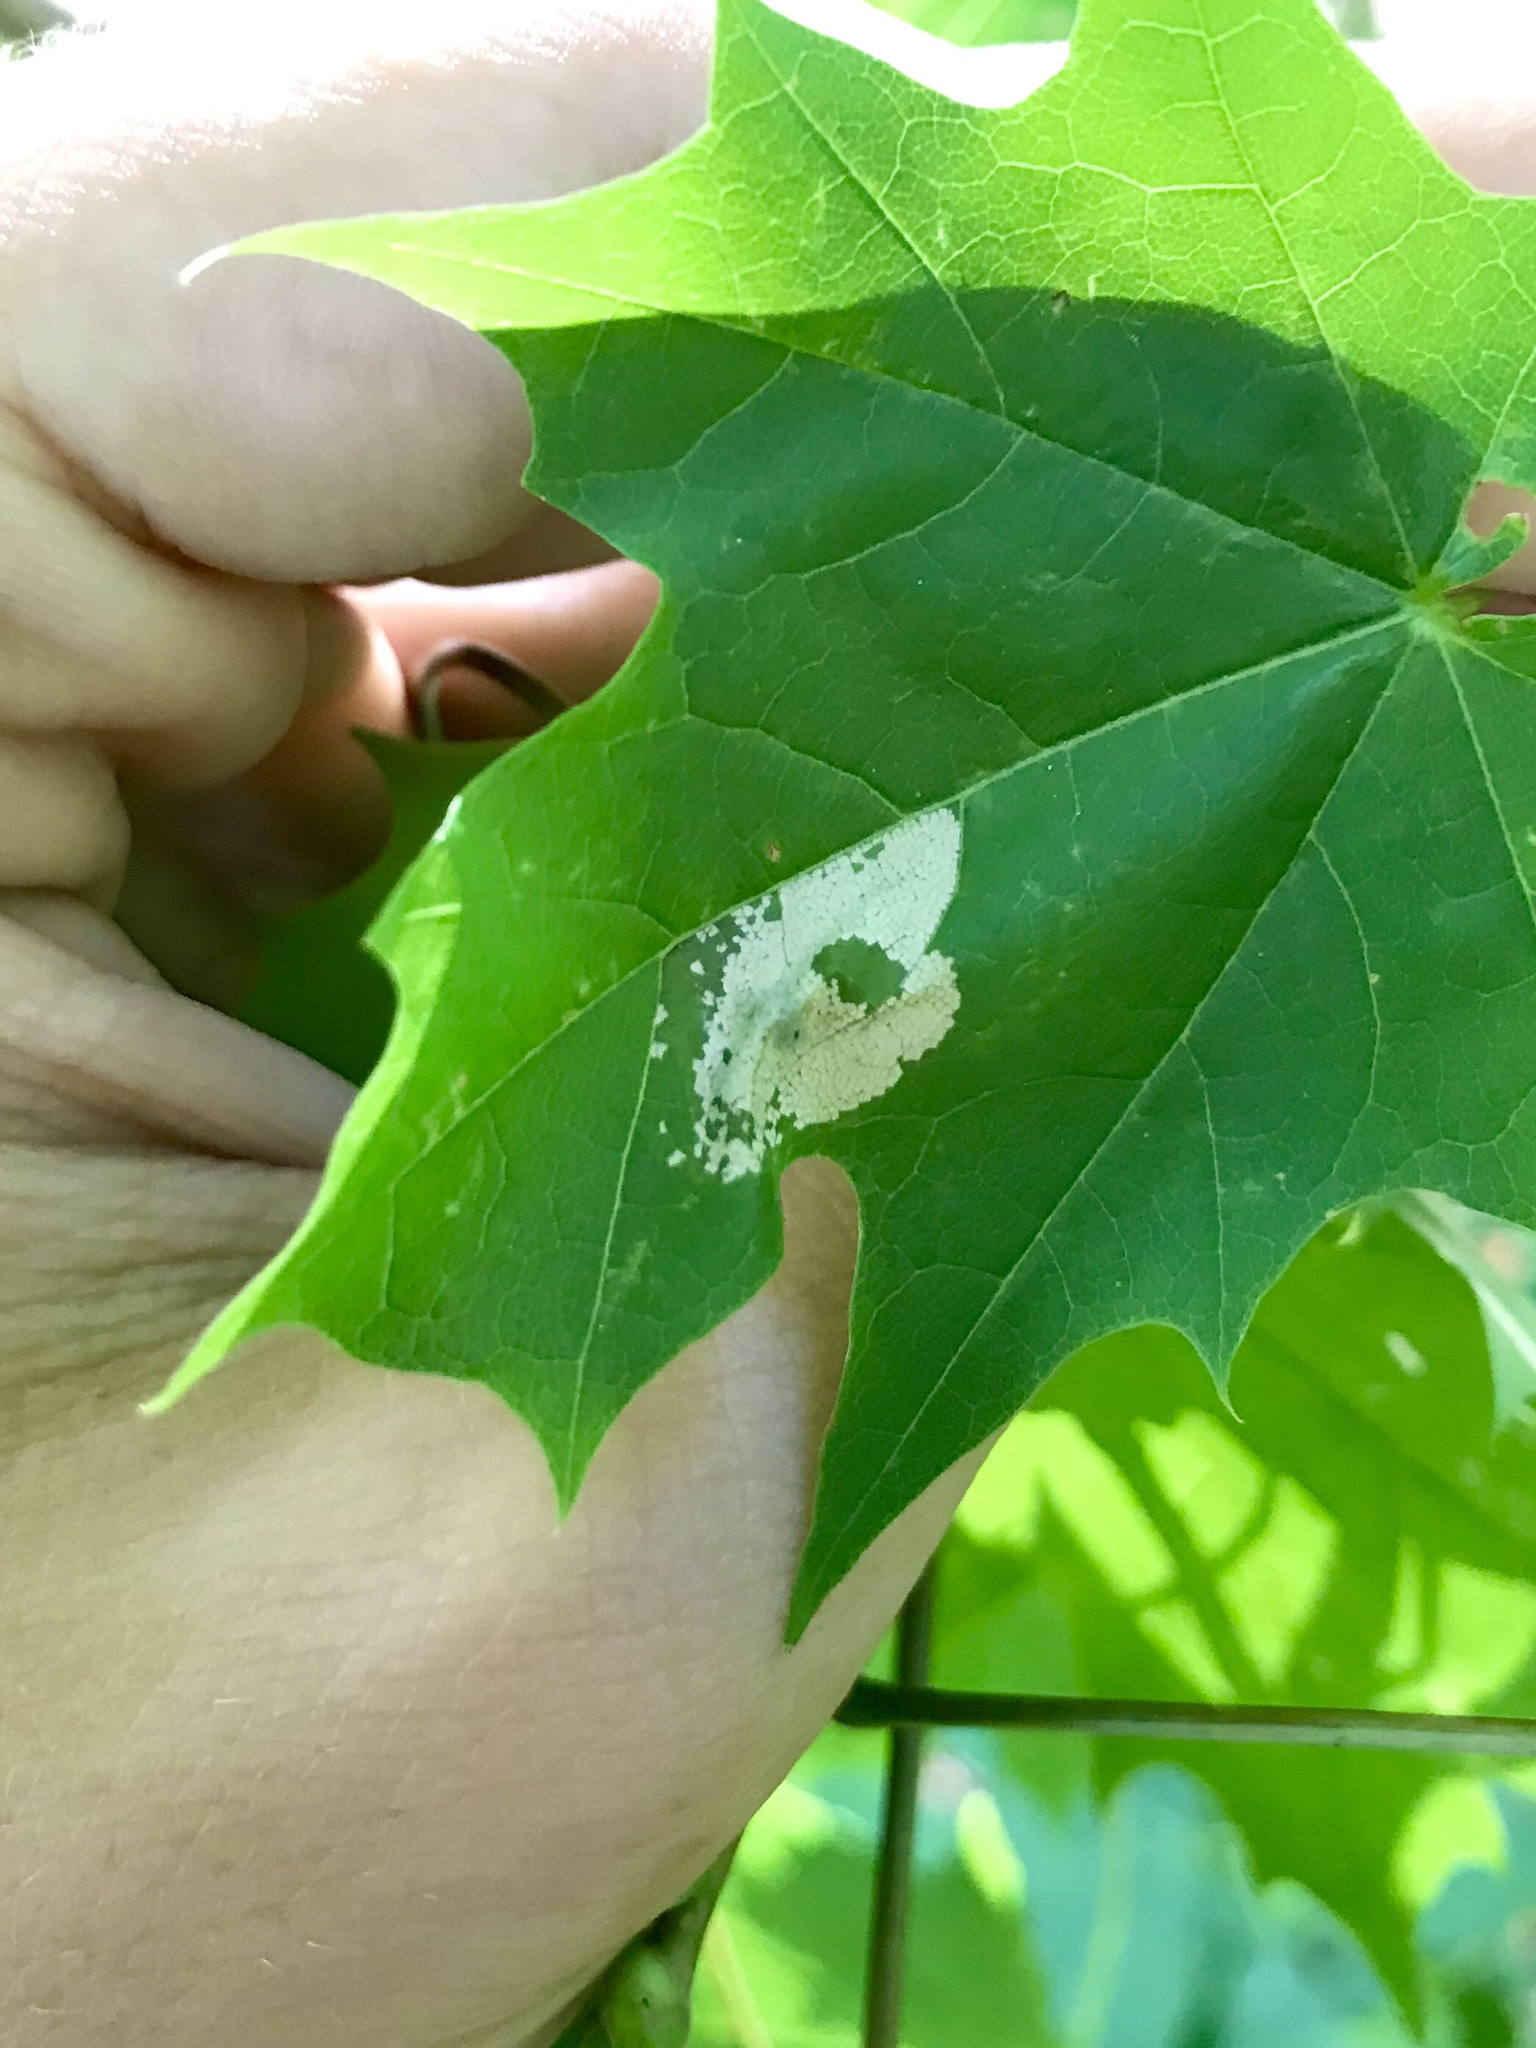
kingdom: Animalia
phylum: Arthropoda
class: Insecta
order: Lepidoptera
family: Gracillariidae
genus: Phyllonorycter
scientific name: Phyllonorycter
